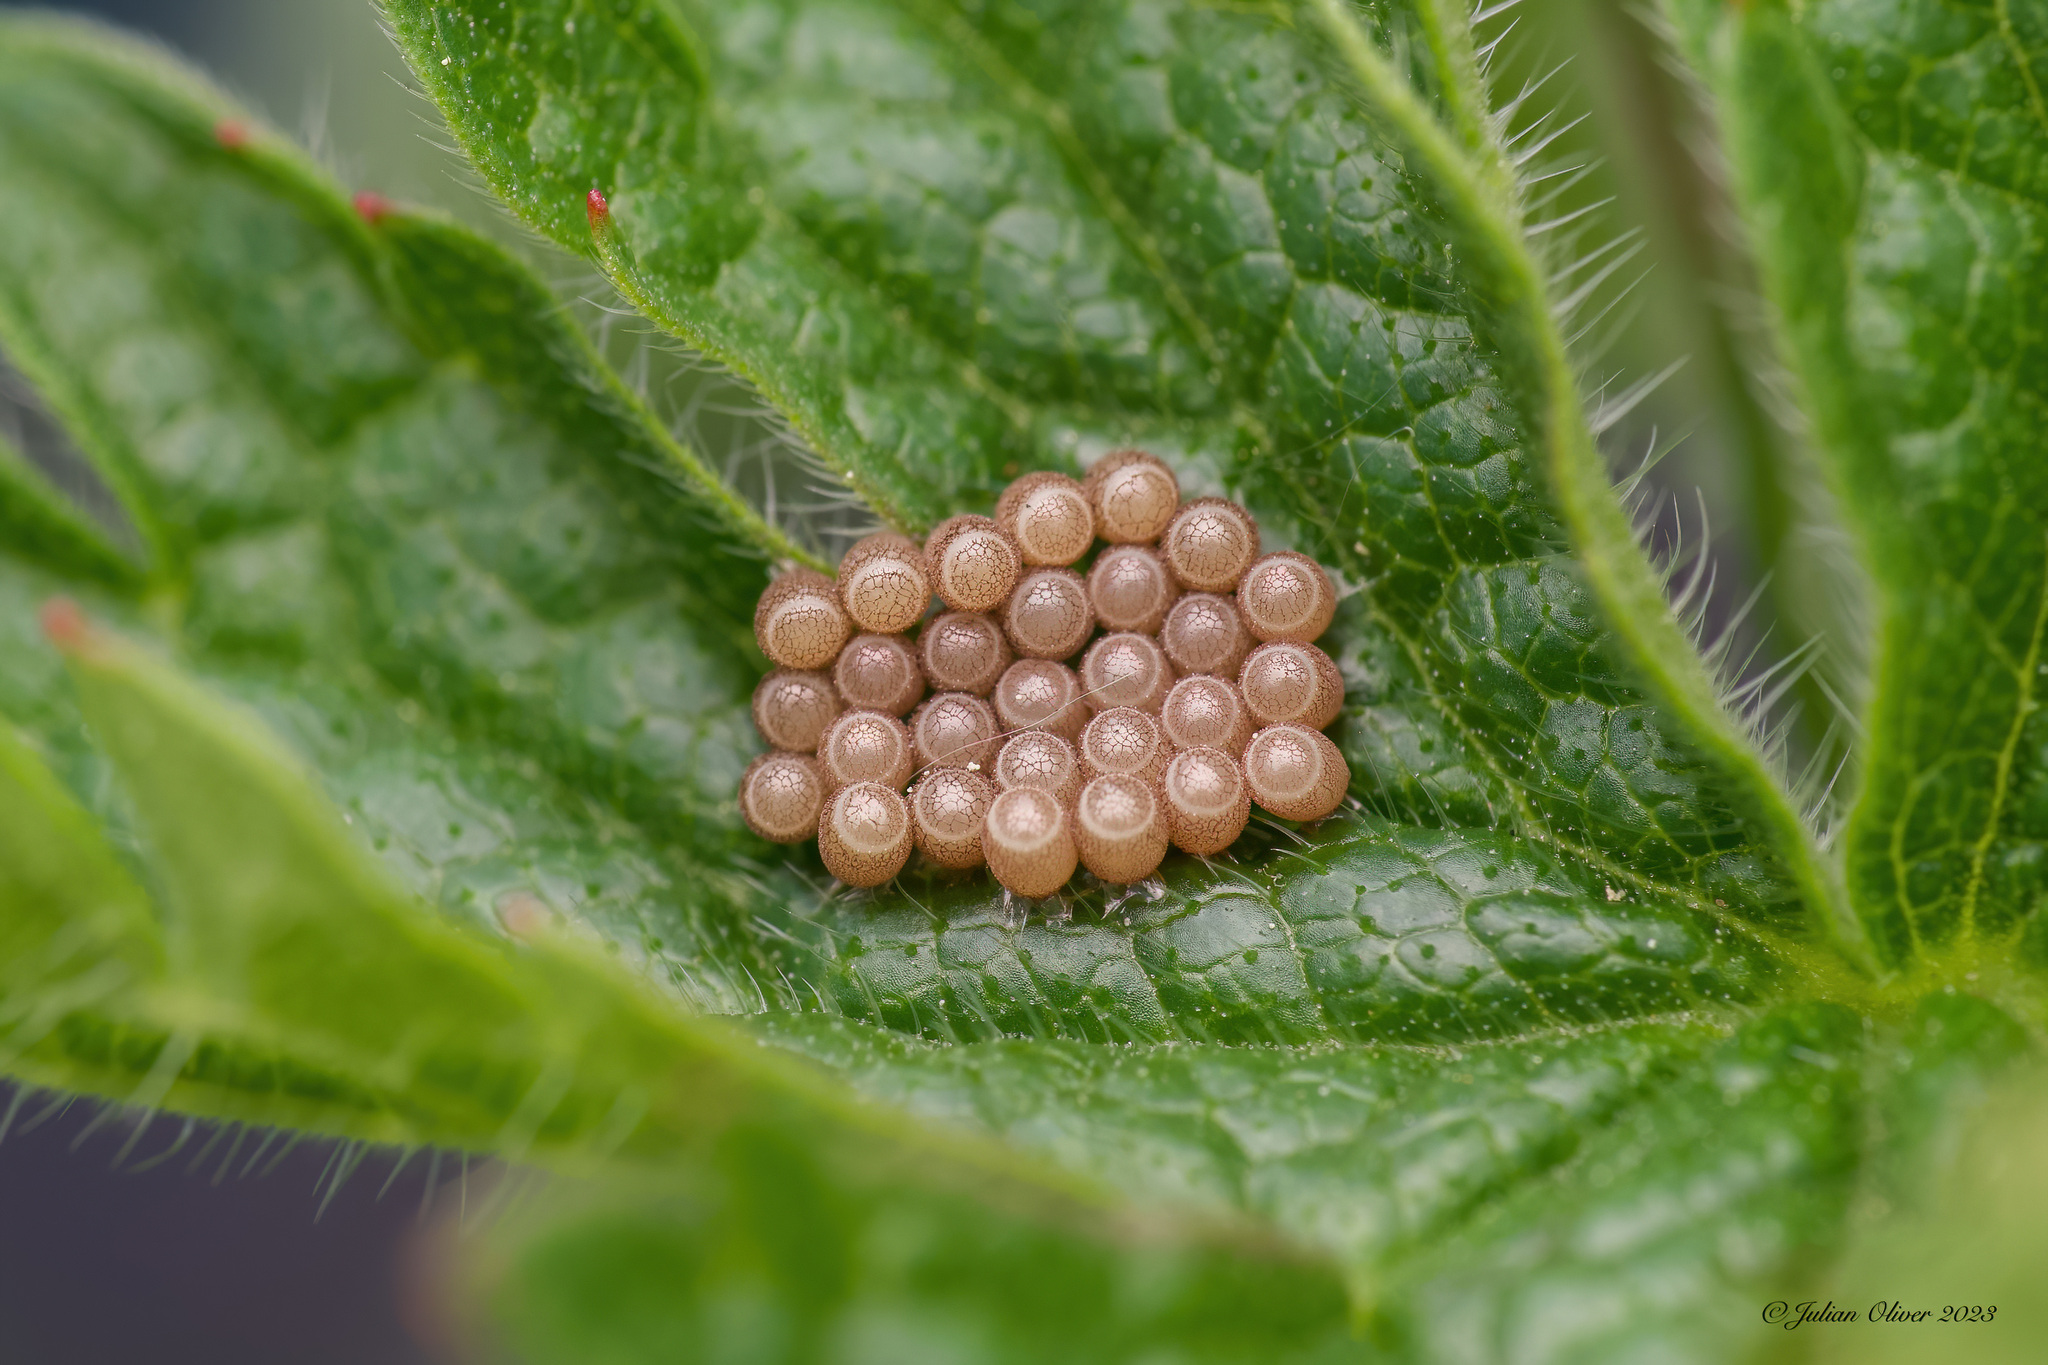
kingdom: Animalia
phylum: Arthropoda
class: Insecta
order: Hemiptera
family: Pentatomidae
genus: Dolycoris
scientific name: Dolycoris baccarum
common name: Sloe bug
